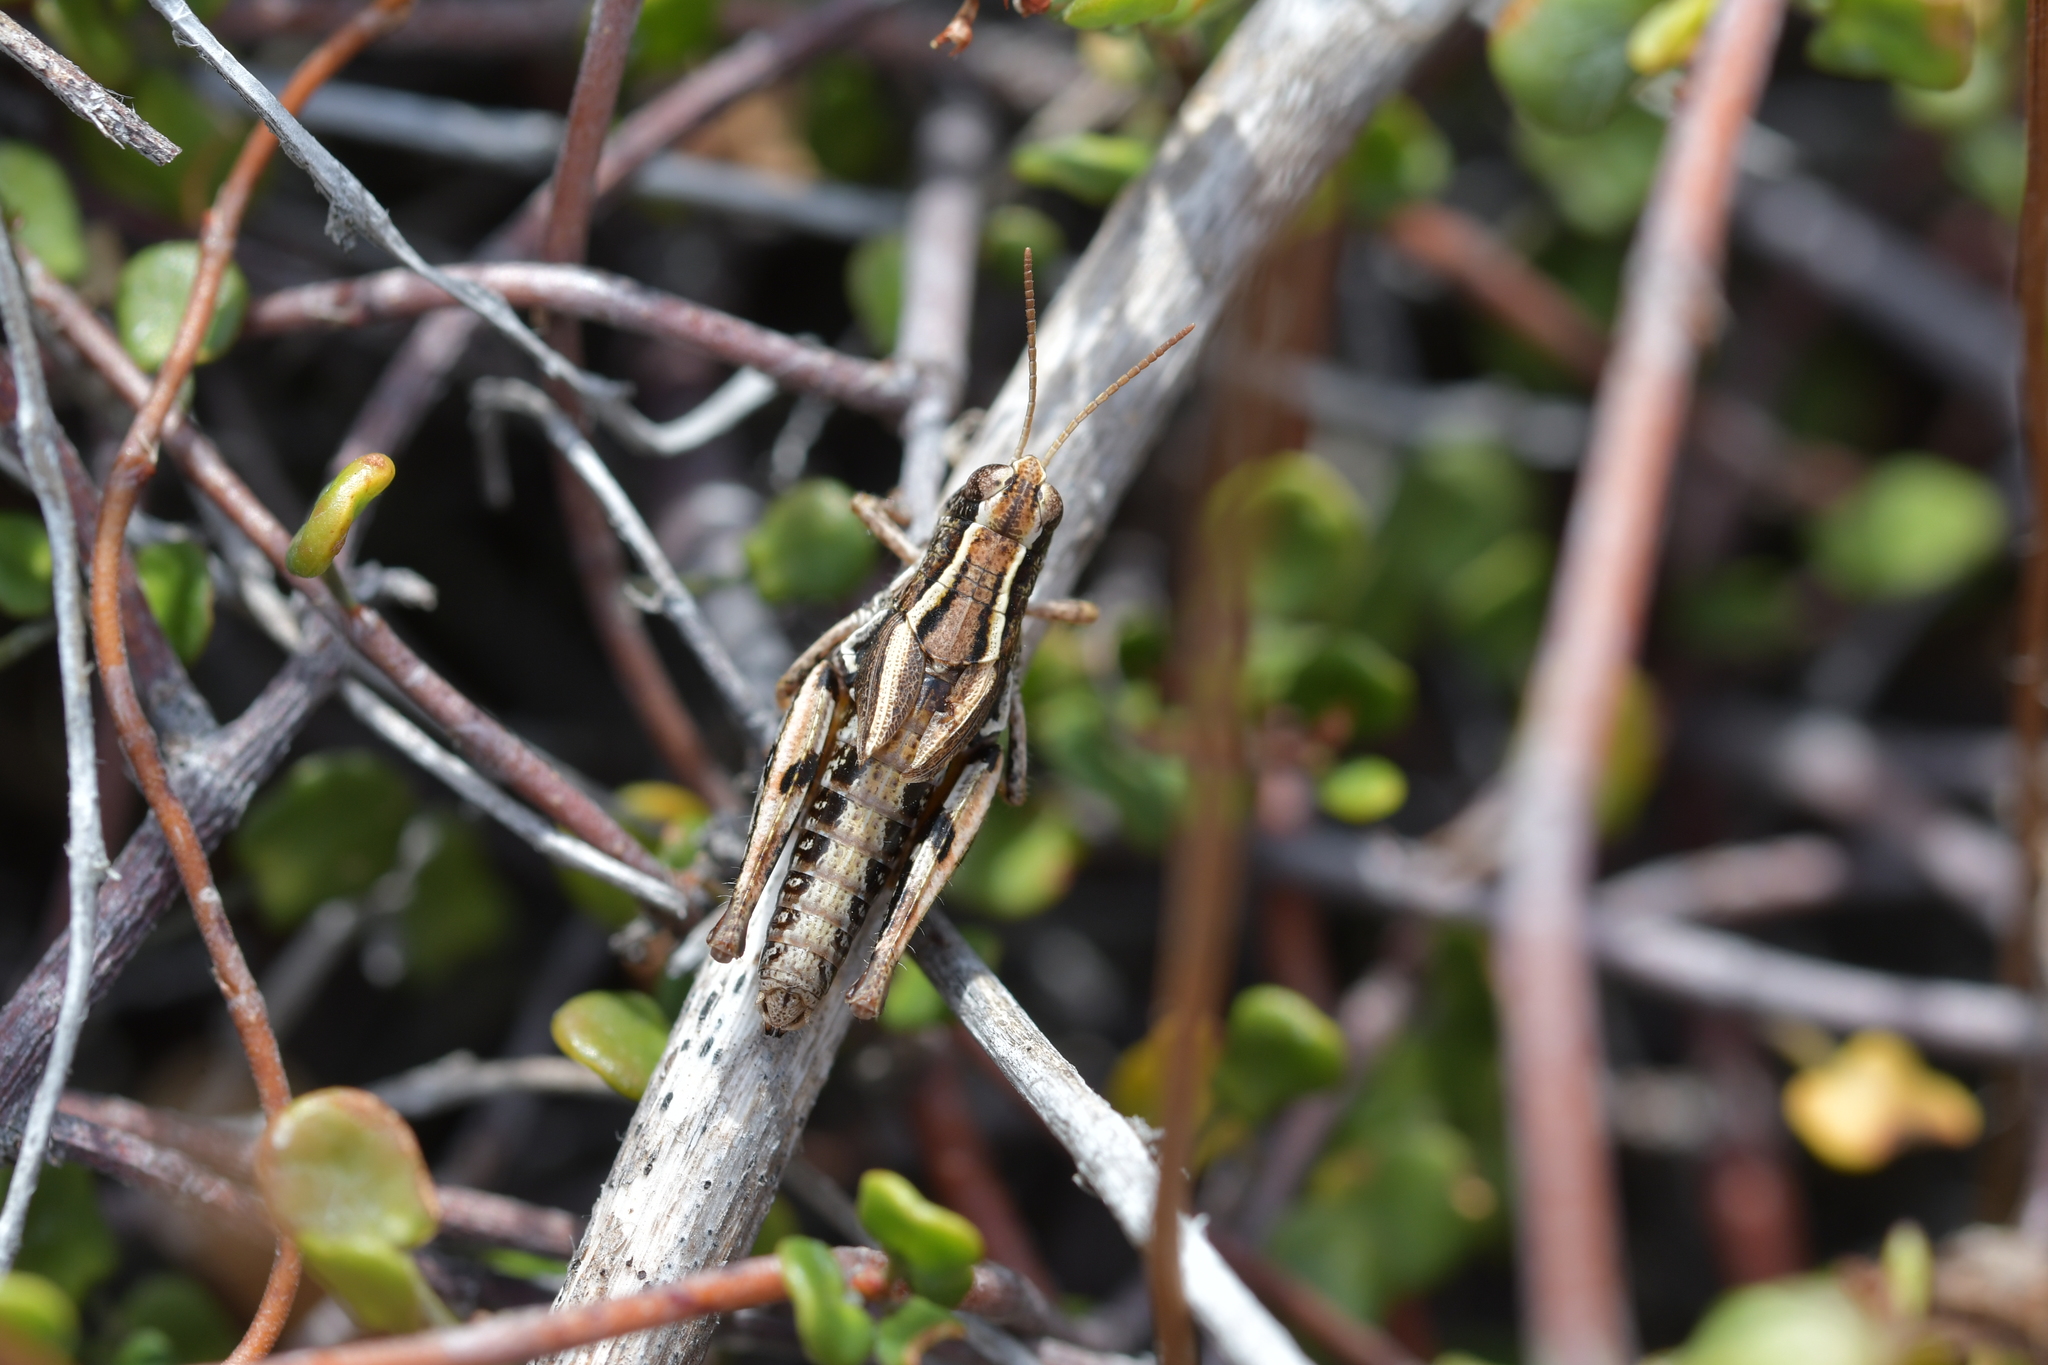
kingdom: Animalia
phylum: Arthropoda
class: Insecta
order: Orthoptera
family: Acrididae
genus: Phaulacridium
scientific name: Phaulacridium marginale
